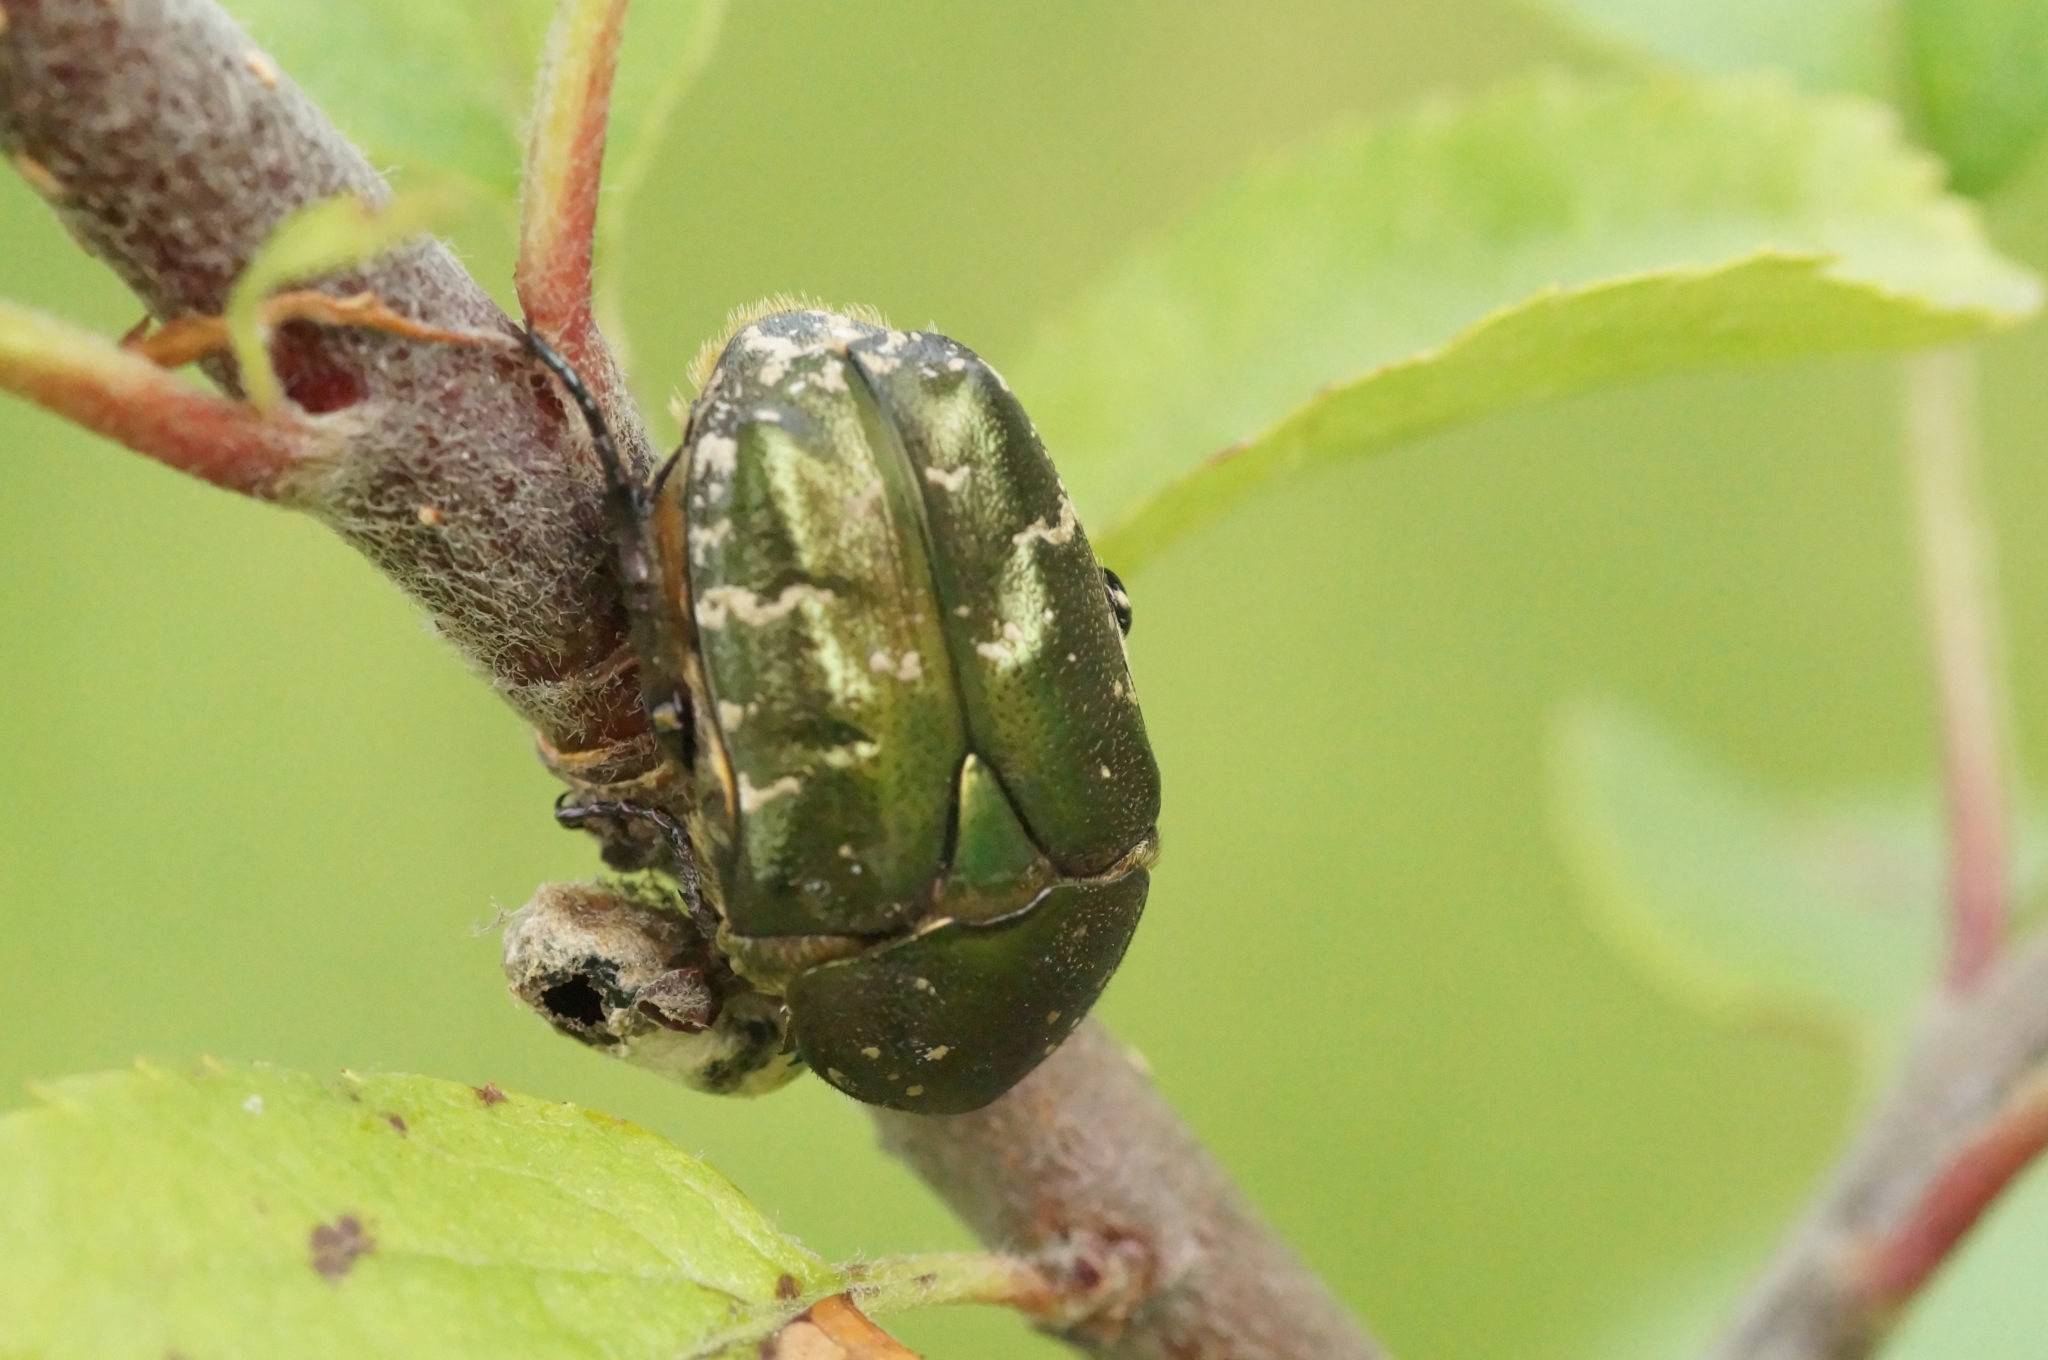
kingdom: Animalia
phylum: Arthropoda
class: Insecta
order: Coleoptera
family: Scarabaeidae
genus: Protaetia
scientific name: Protaetia cuprea
